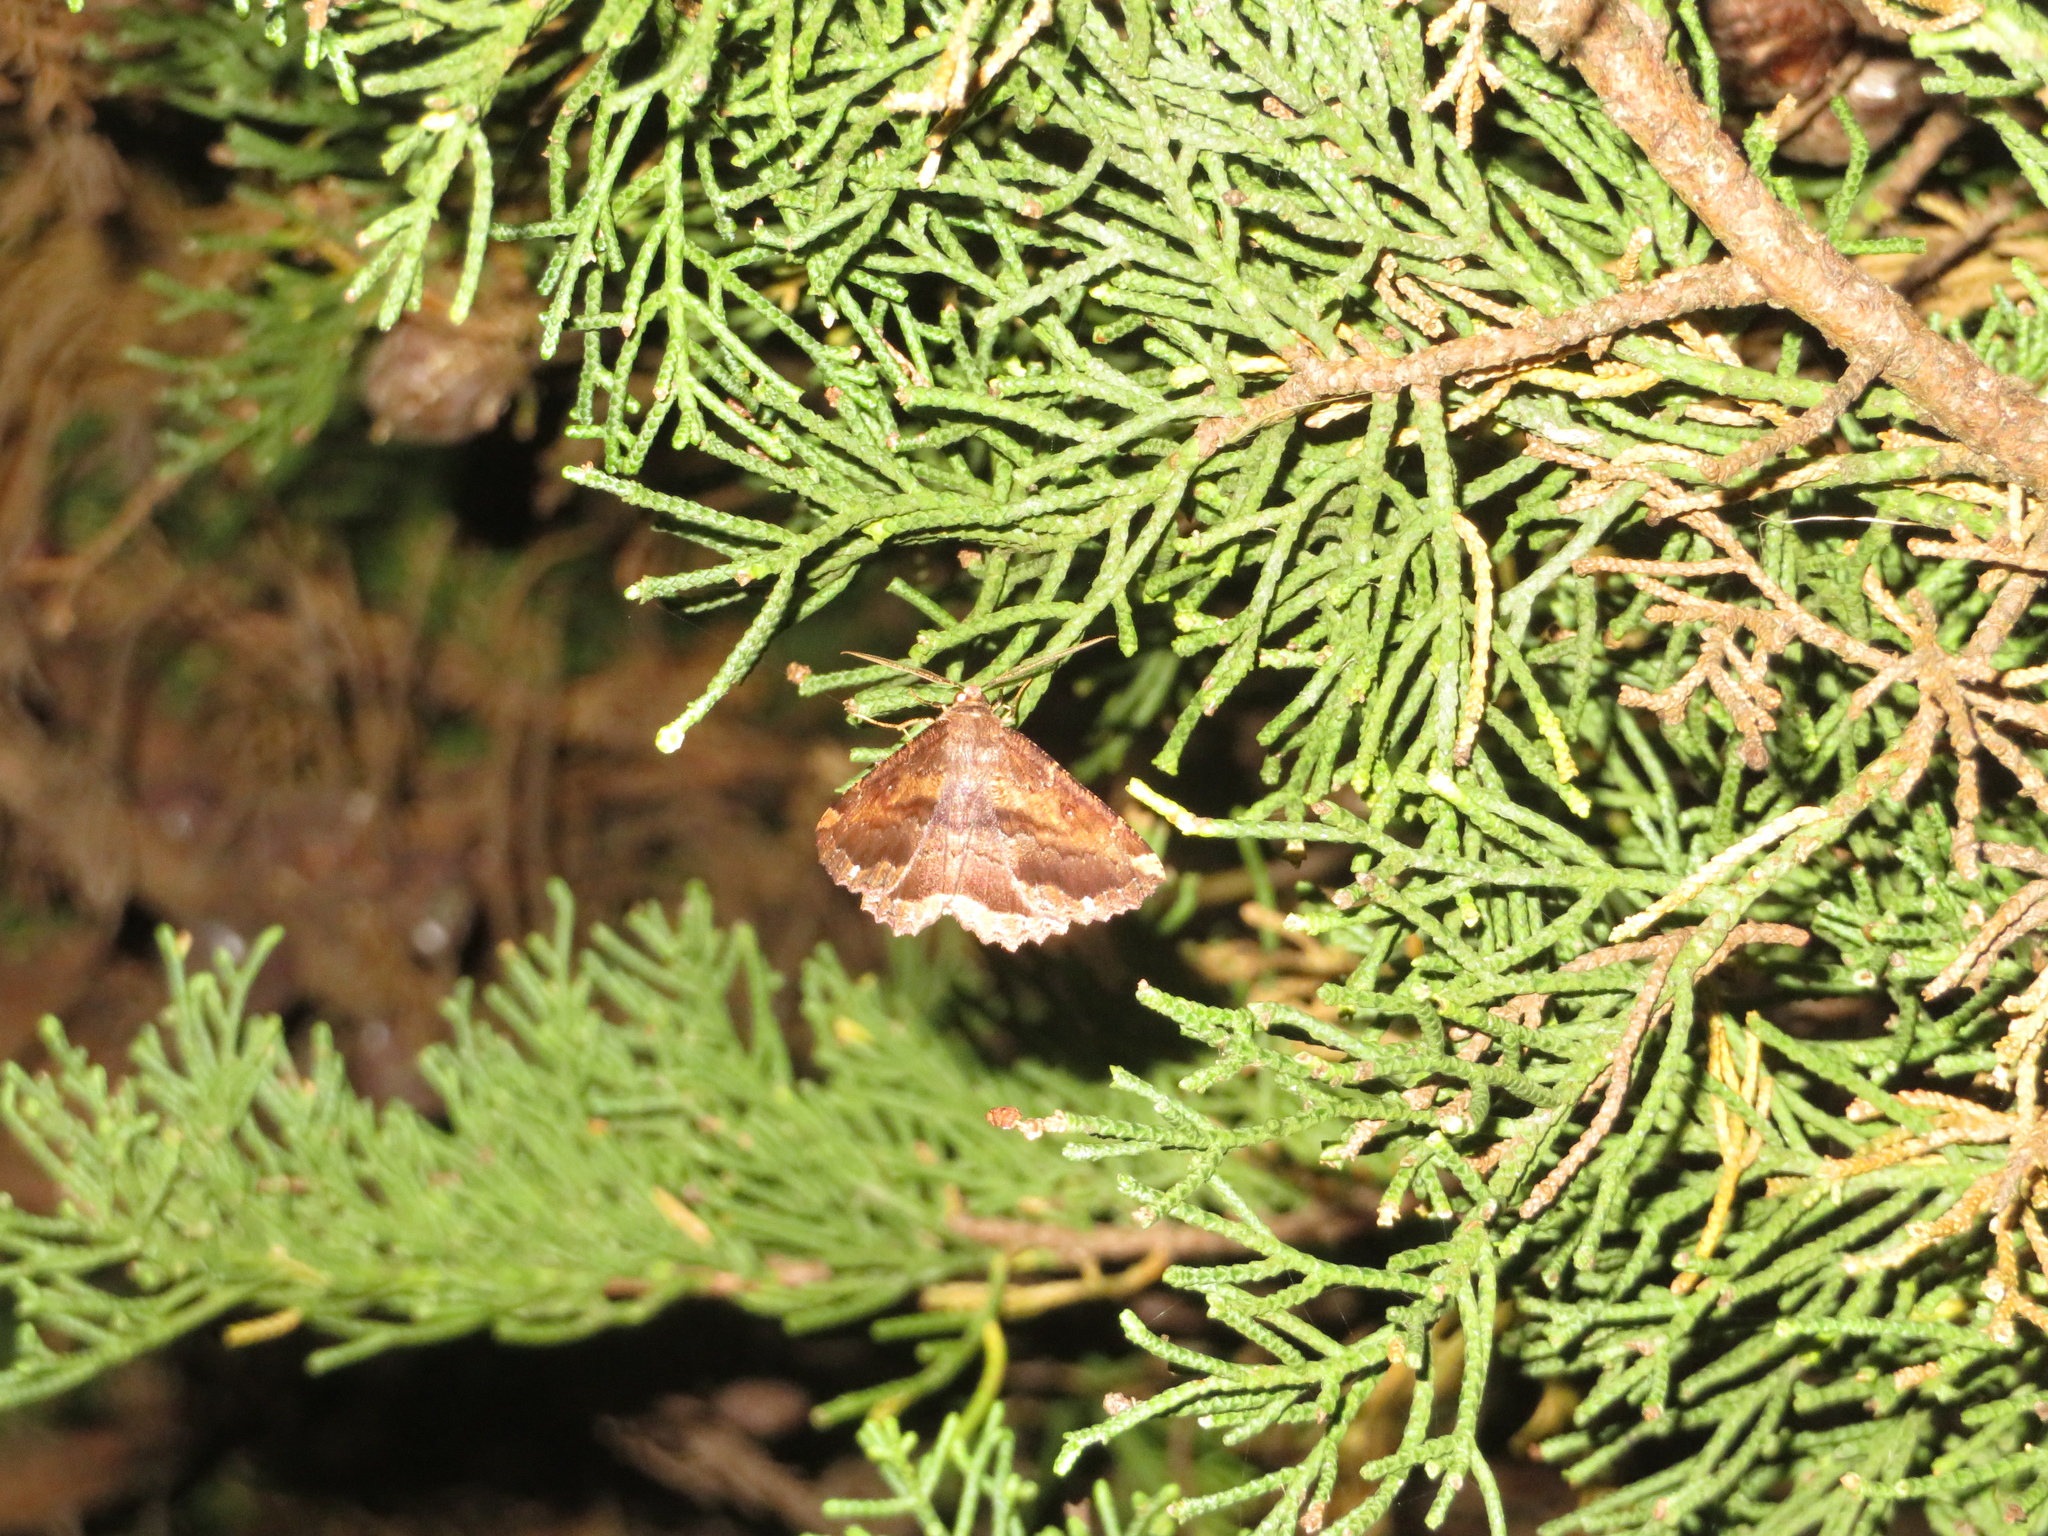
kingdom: Animalia
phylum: Arthropoda
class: Insecta
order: Lepidoptera
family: Geometridae
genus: Gellonia
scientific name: Gellonia dejectaria
